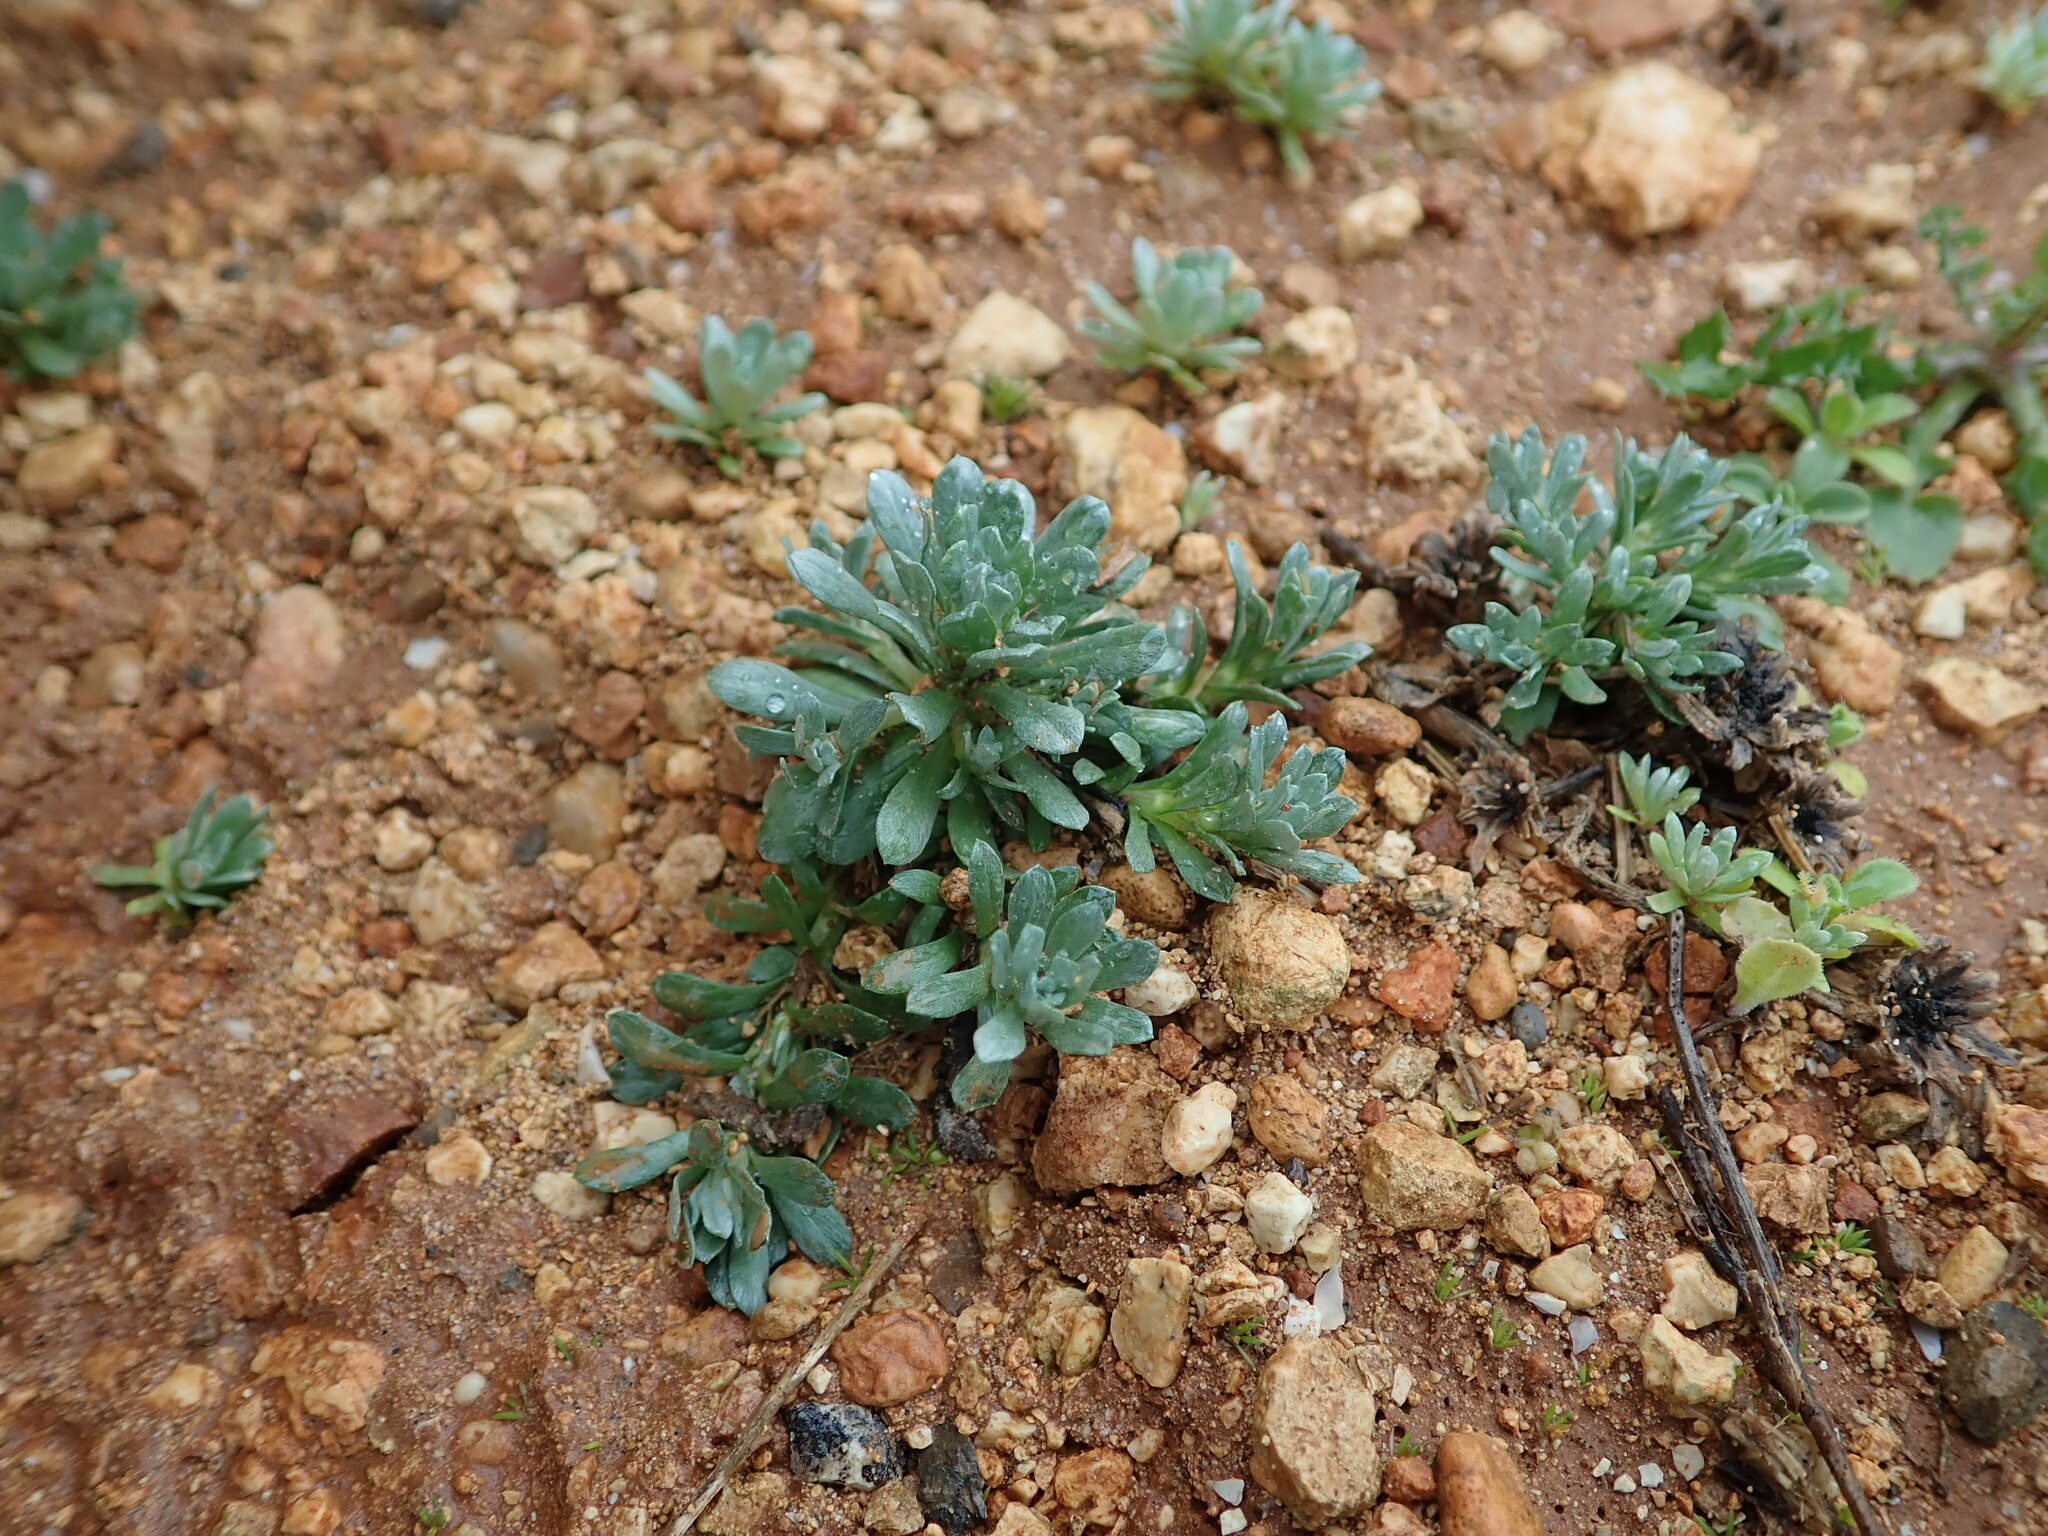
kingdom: Plantae
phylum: Tracheophyta
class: Magnoliopsida
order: Asterales
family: Asteraceae
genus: Filago
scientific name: Filago pygmaea
